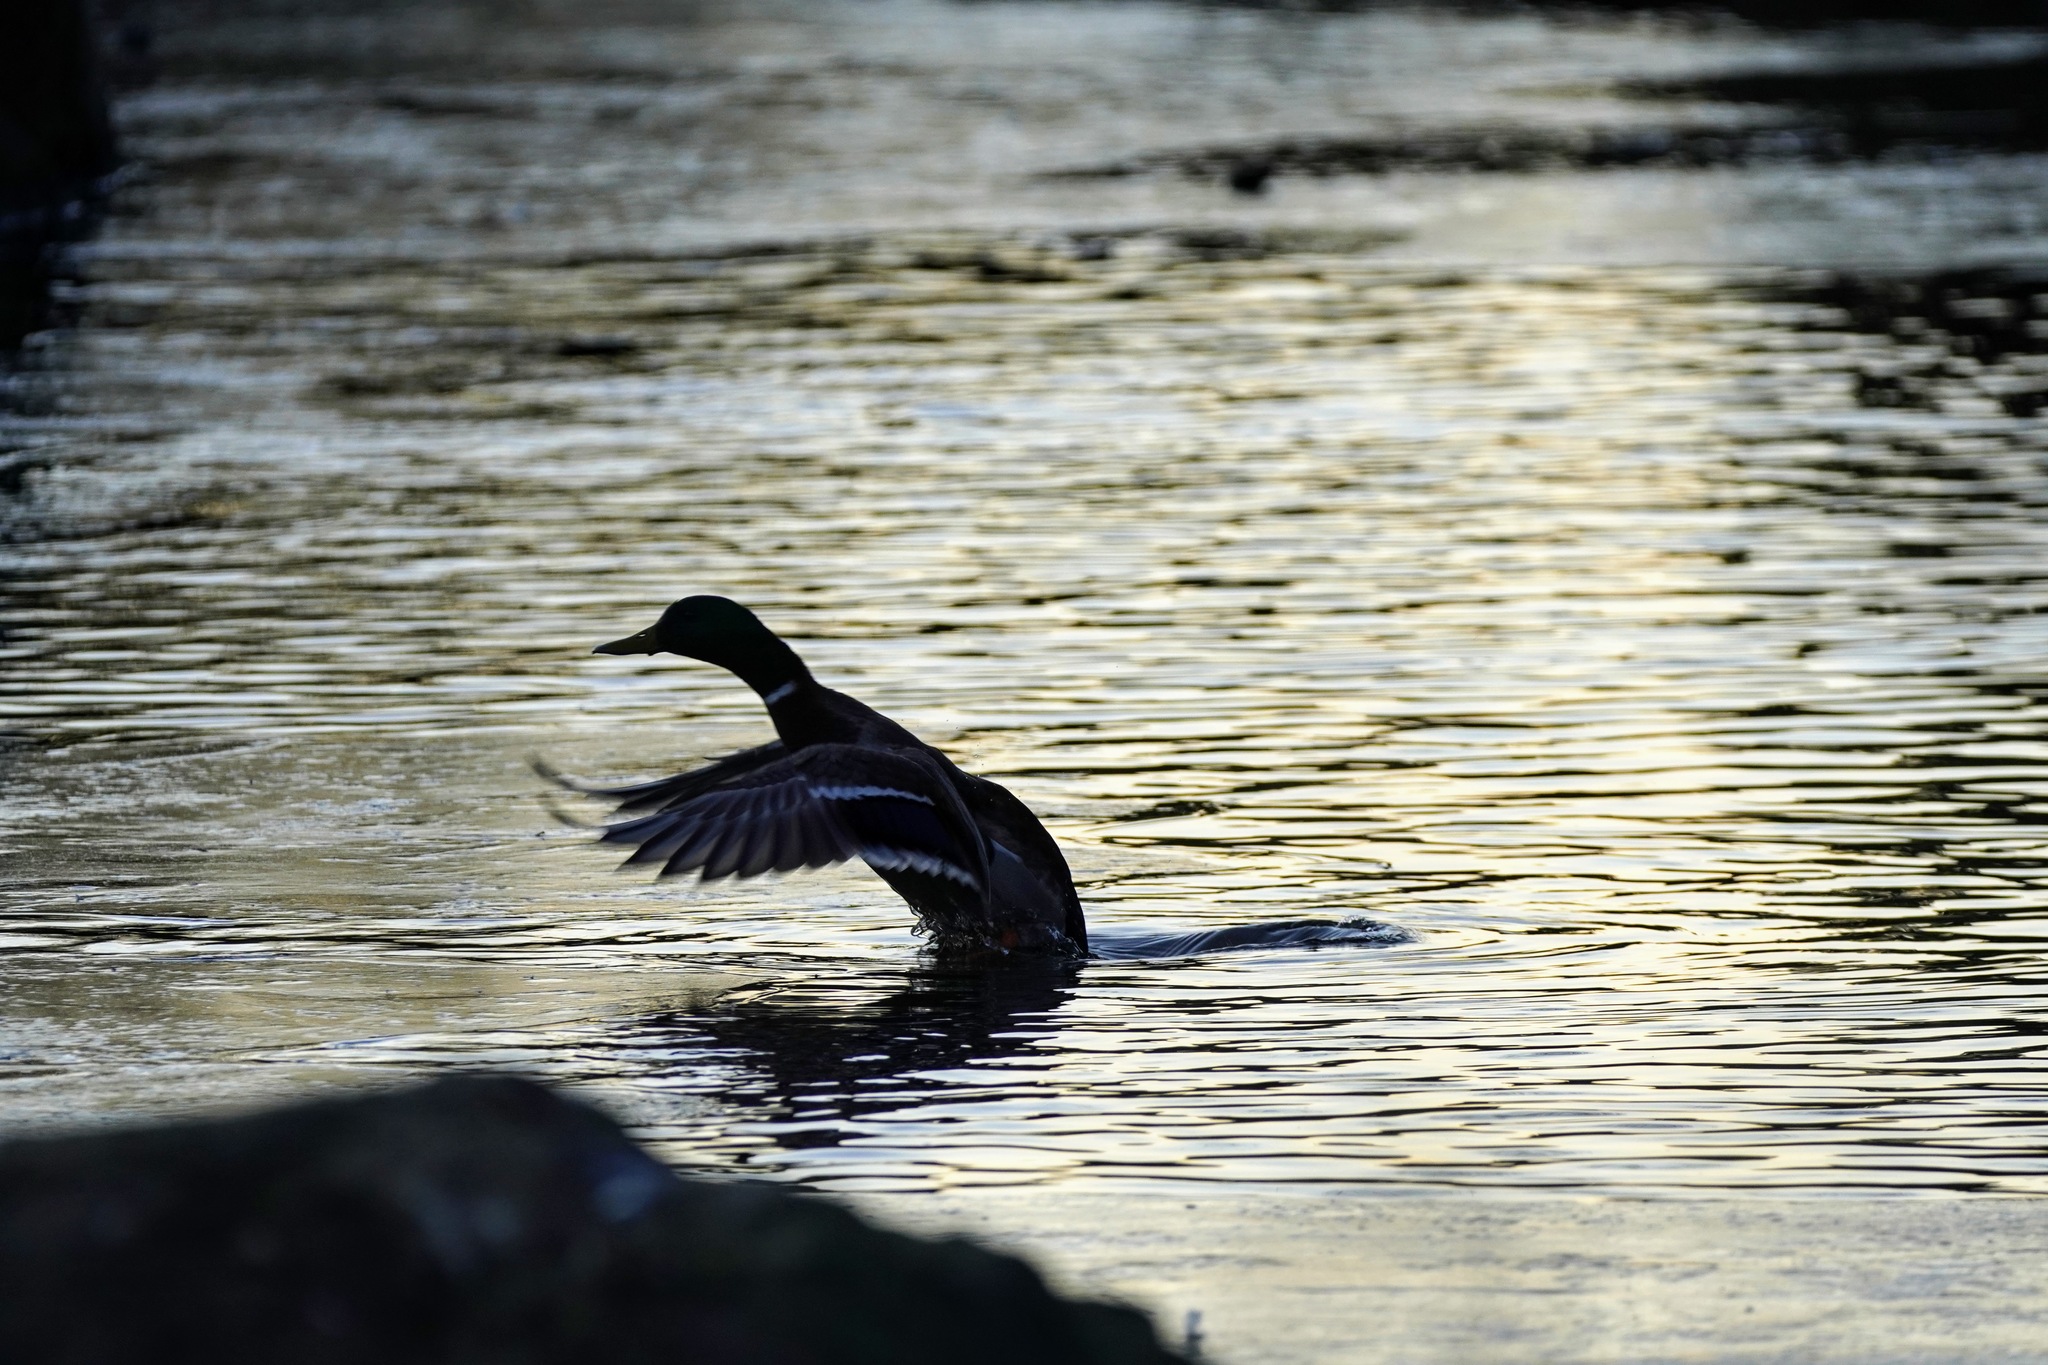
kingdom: Animalia
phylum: Chordata
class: Aves
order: Anseriformes
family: Anatidae
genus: Anas
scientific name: Anas platyrhynchos
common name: Mallard
